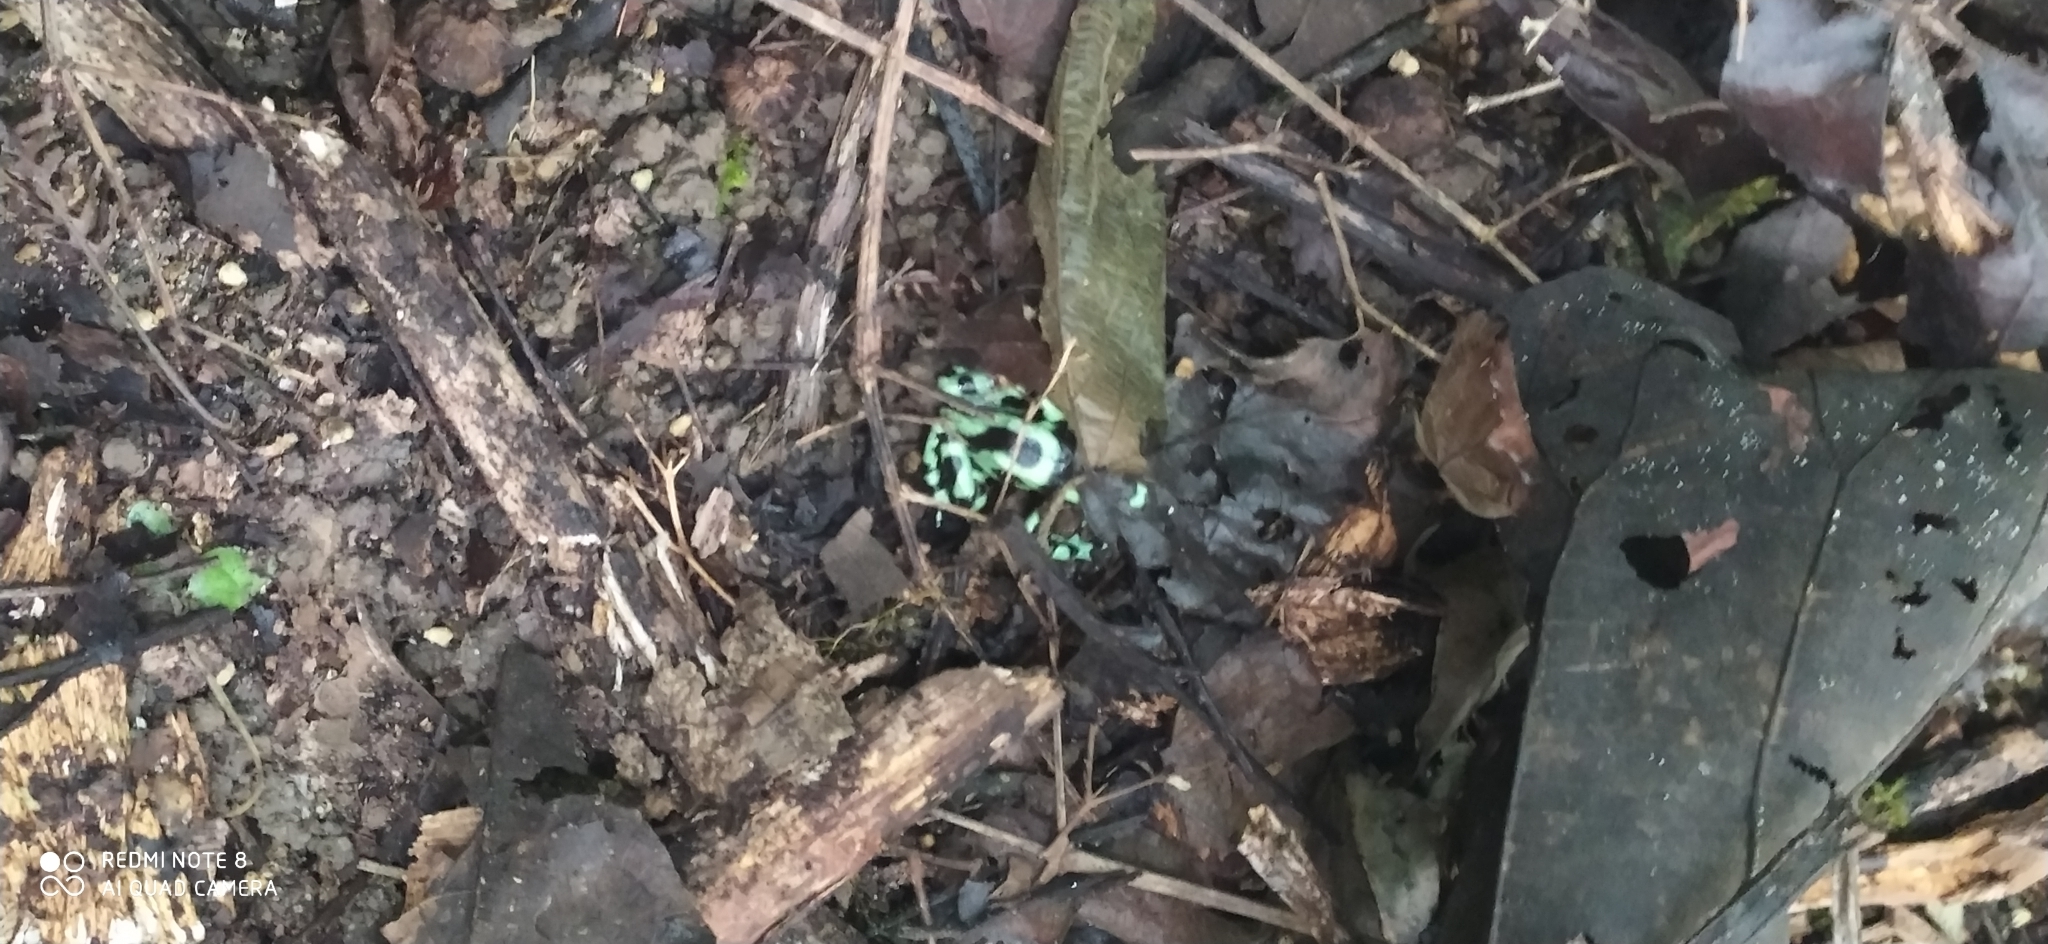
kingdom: Animalia
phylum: Chordata
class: Amphibia
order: Anura
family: Dendrobatidae
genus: Dendrobates
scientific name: Dendrobates auratus
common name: Green and black poison dart frog
